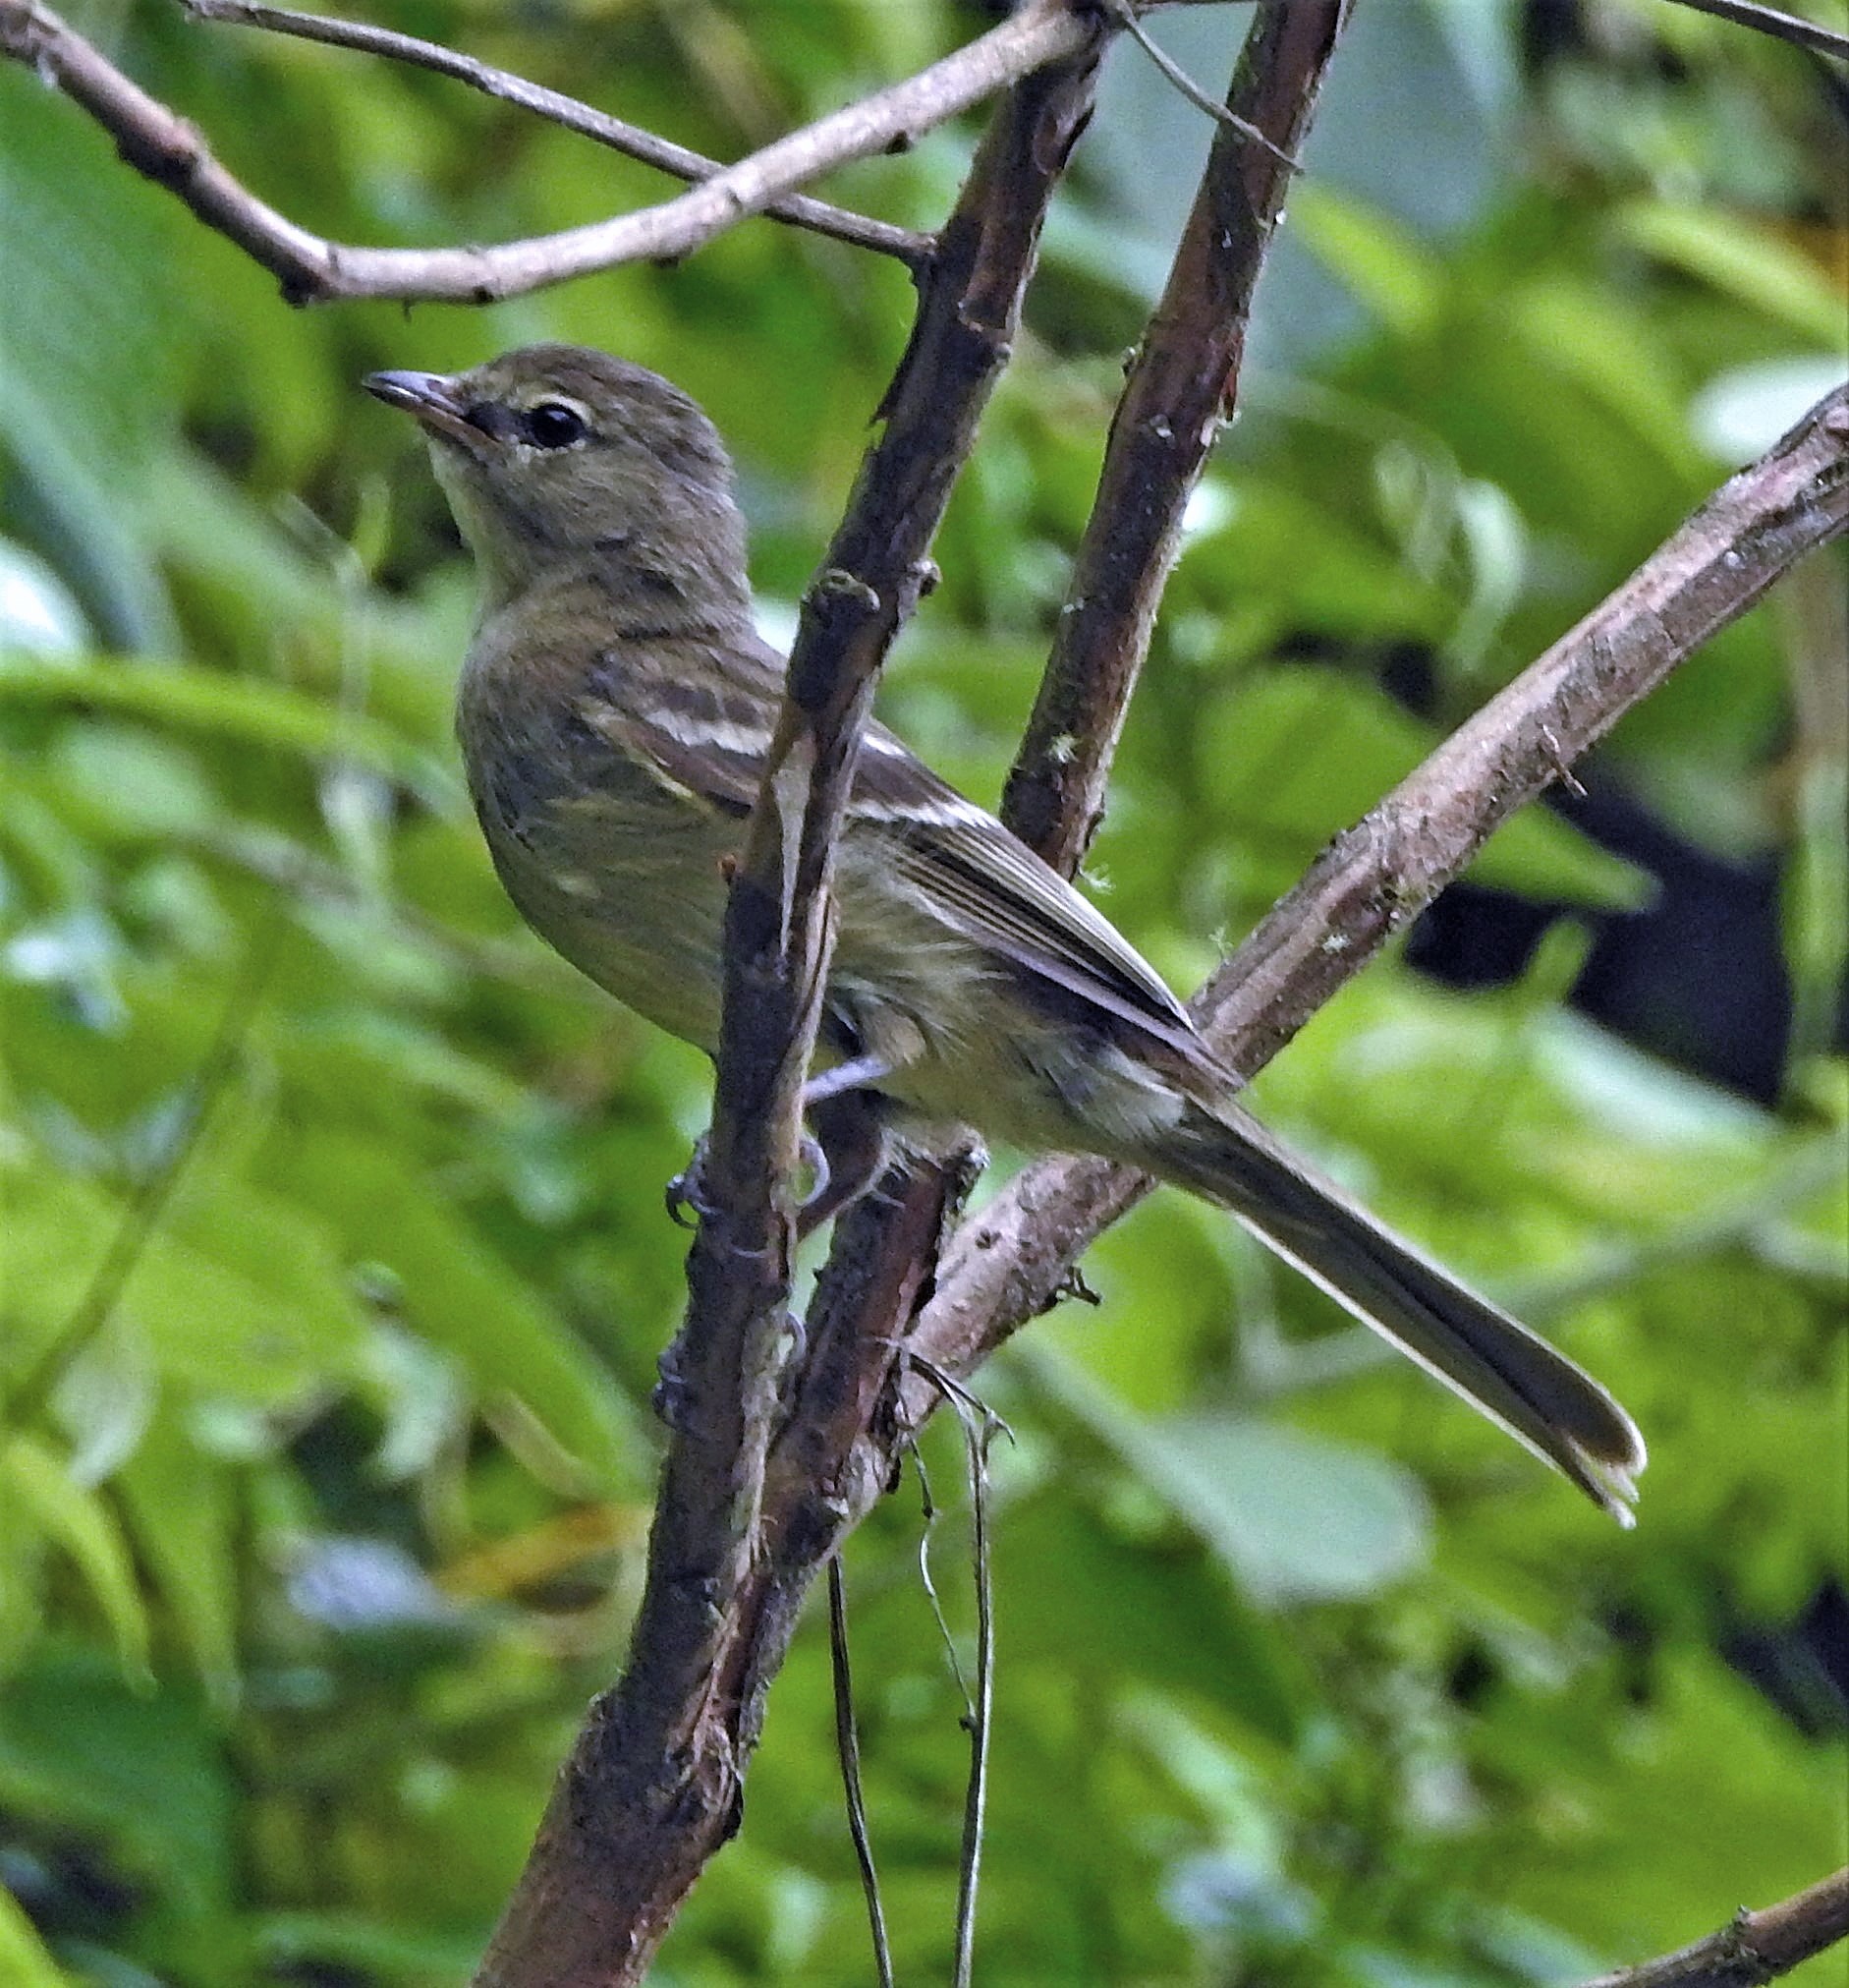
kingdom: Animalia
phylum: Chordata
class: Aves
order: Passeriformes
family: Tyrannidae
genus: Elaenia
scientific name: Elaenia obscura
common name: Highland elaenia
